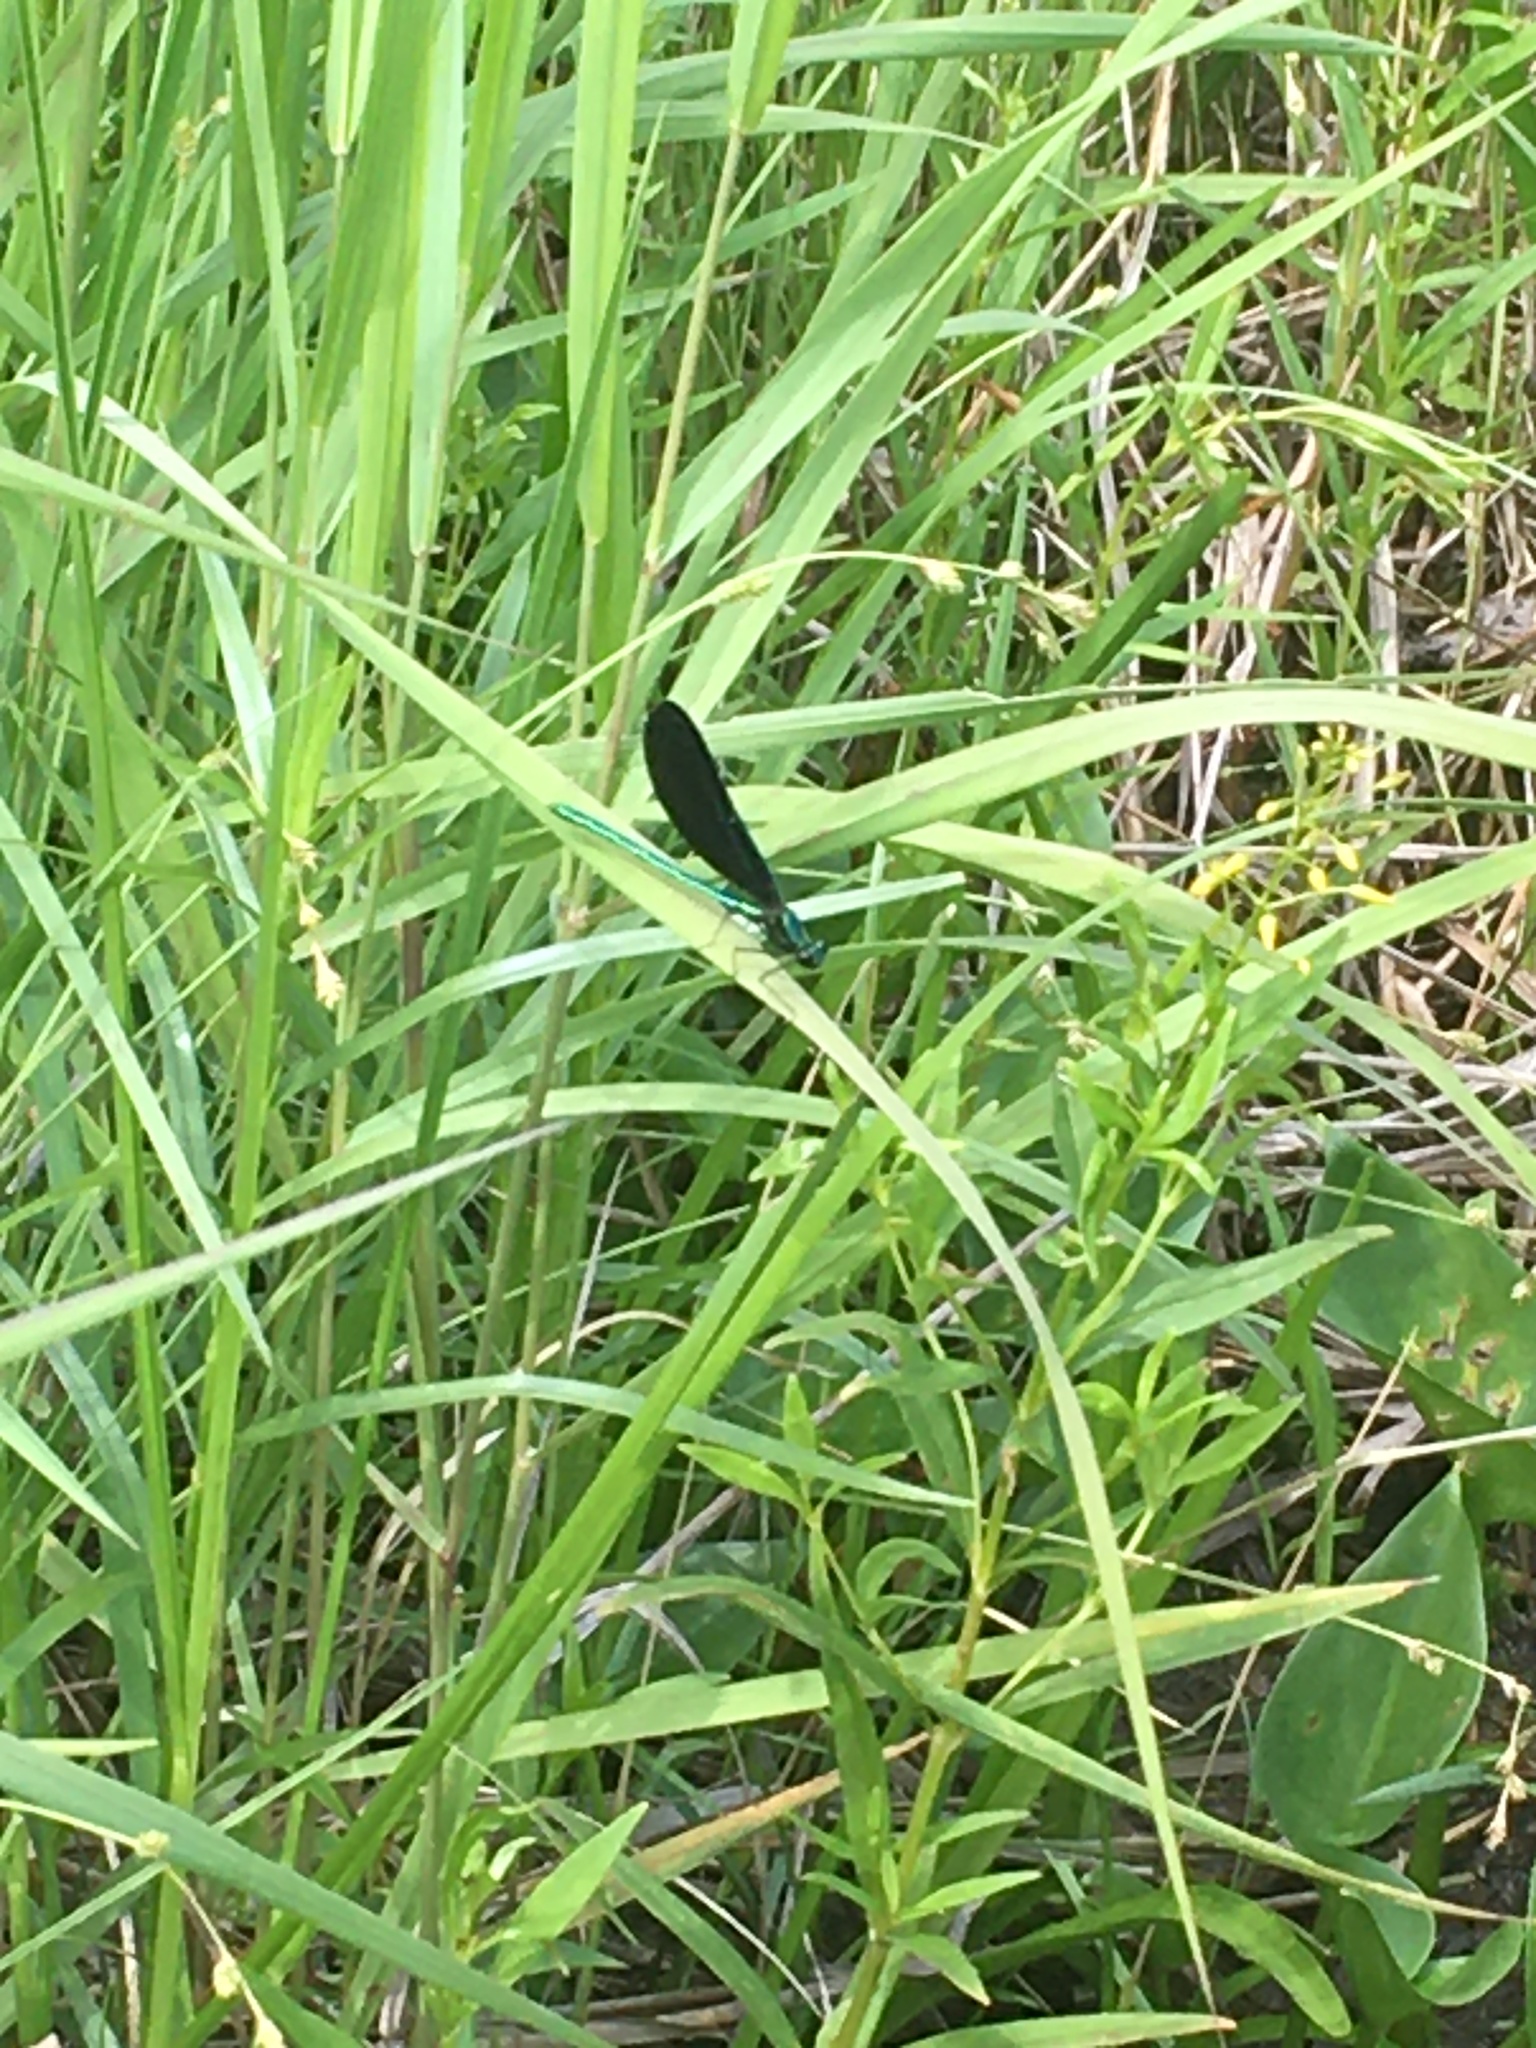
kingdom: Animalia
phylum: Arthropoda
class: Insecta
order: Odonata
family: Calopterygidae
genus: Calopteryx
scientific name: Calopteryx maculata
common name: Ebony jewelwing
